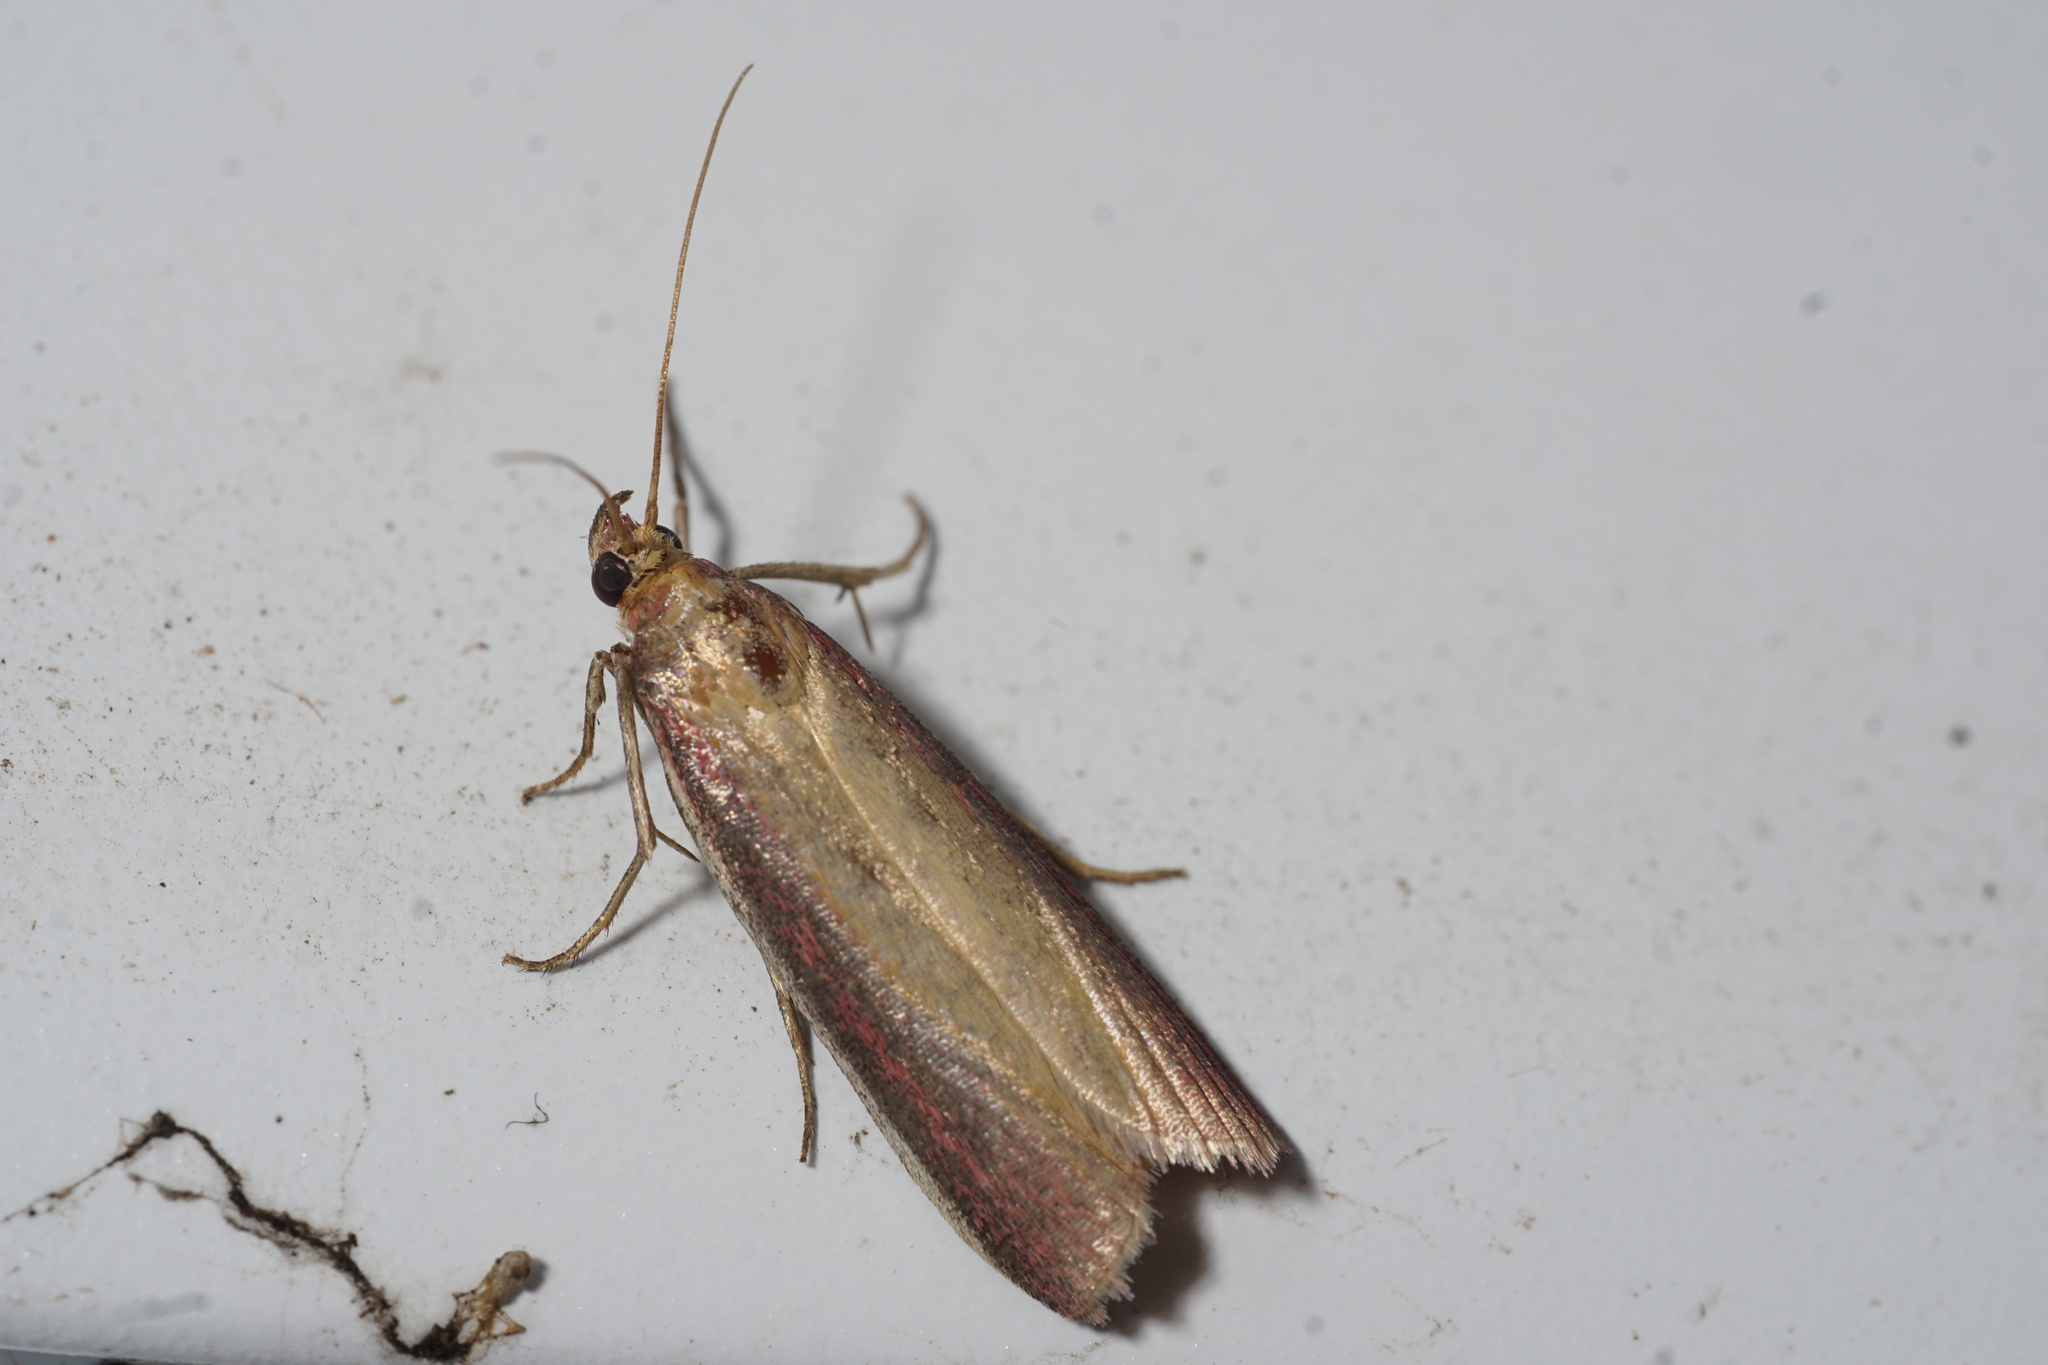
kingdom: Animalia
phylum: Arthropoda
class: Insecta
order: Lepidoptera
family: Pyralidae
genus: Oncocera
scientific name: Oncocera semirubella
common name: Rosy-striped knot-horn
